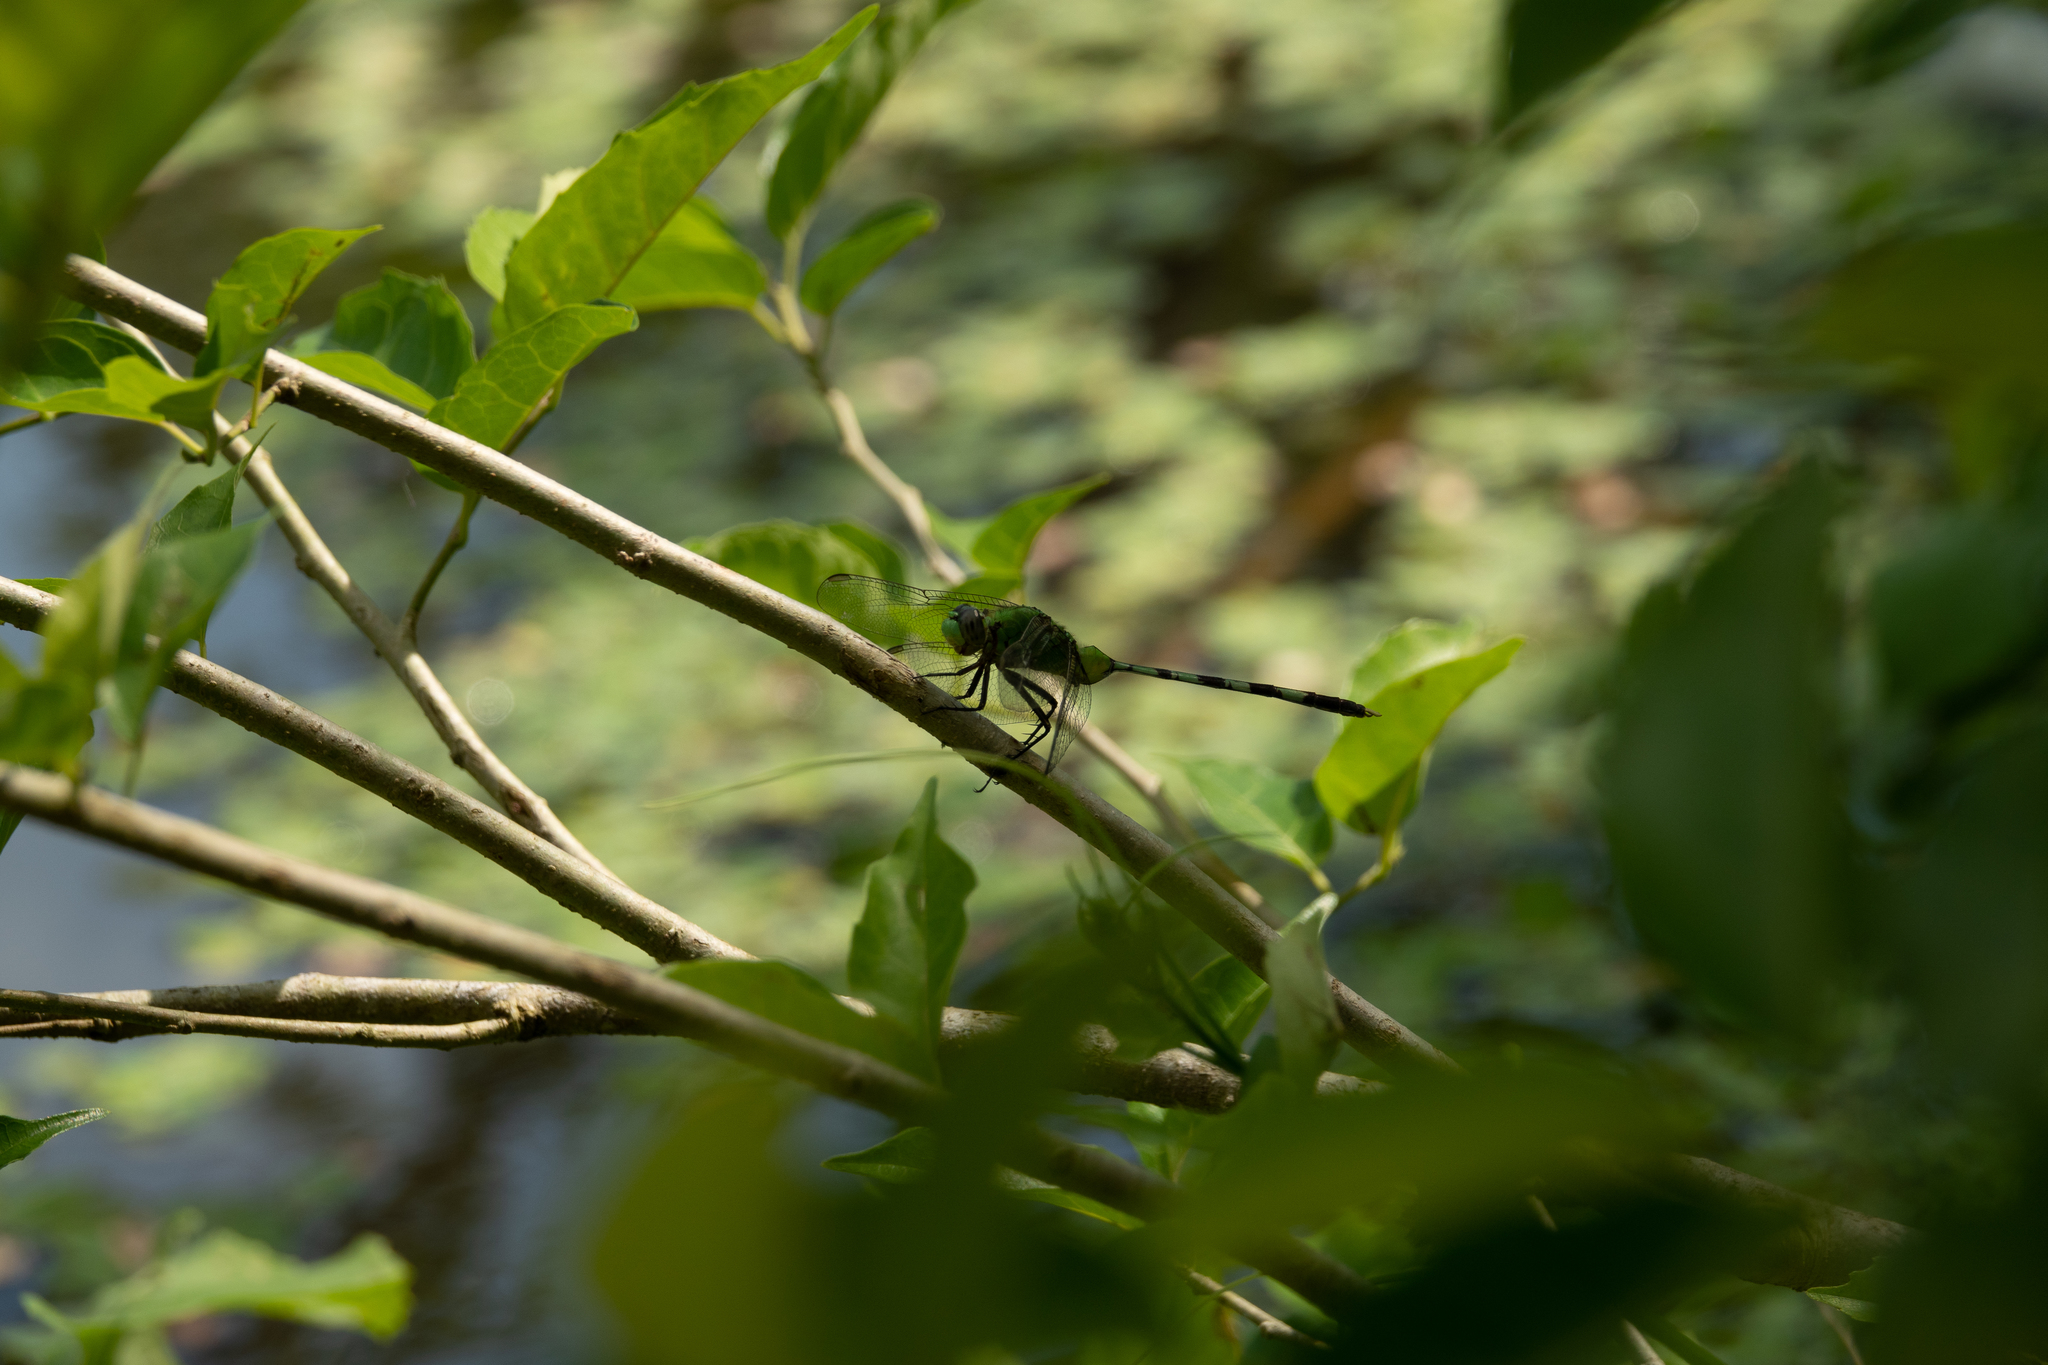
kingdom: Animalia
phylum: Arthropoda
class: Insecta
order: Odonata
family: Libellulidae
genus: Erythemis
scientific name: Erythemis vesiculosa
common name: Great pondhawk
